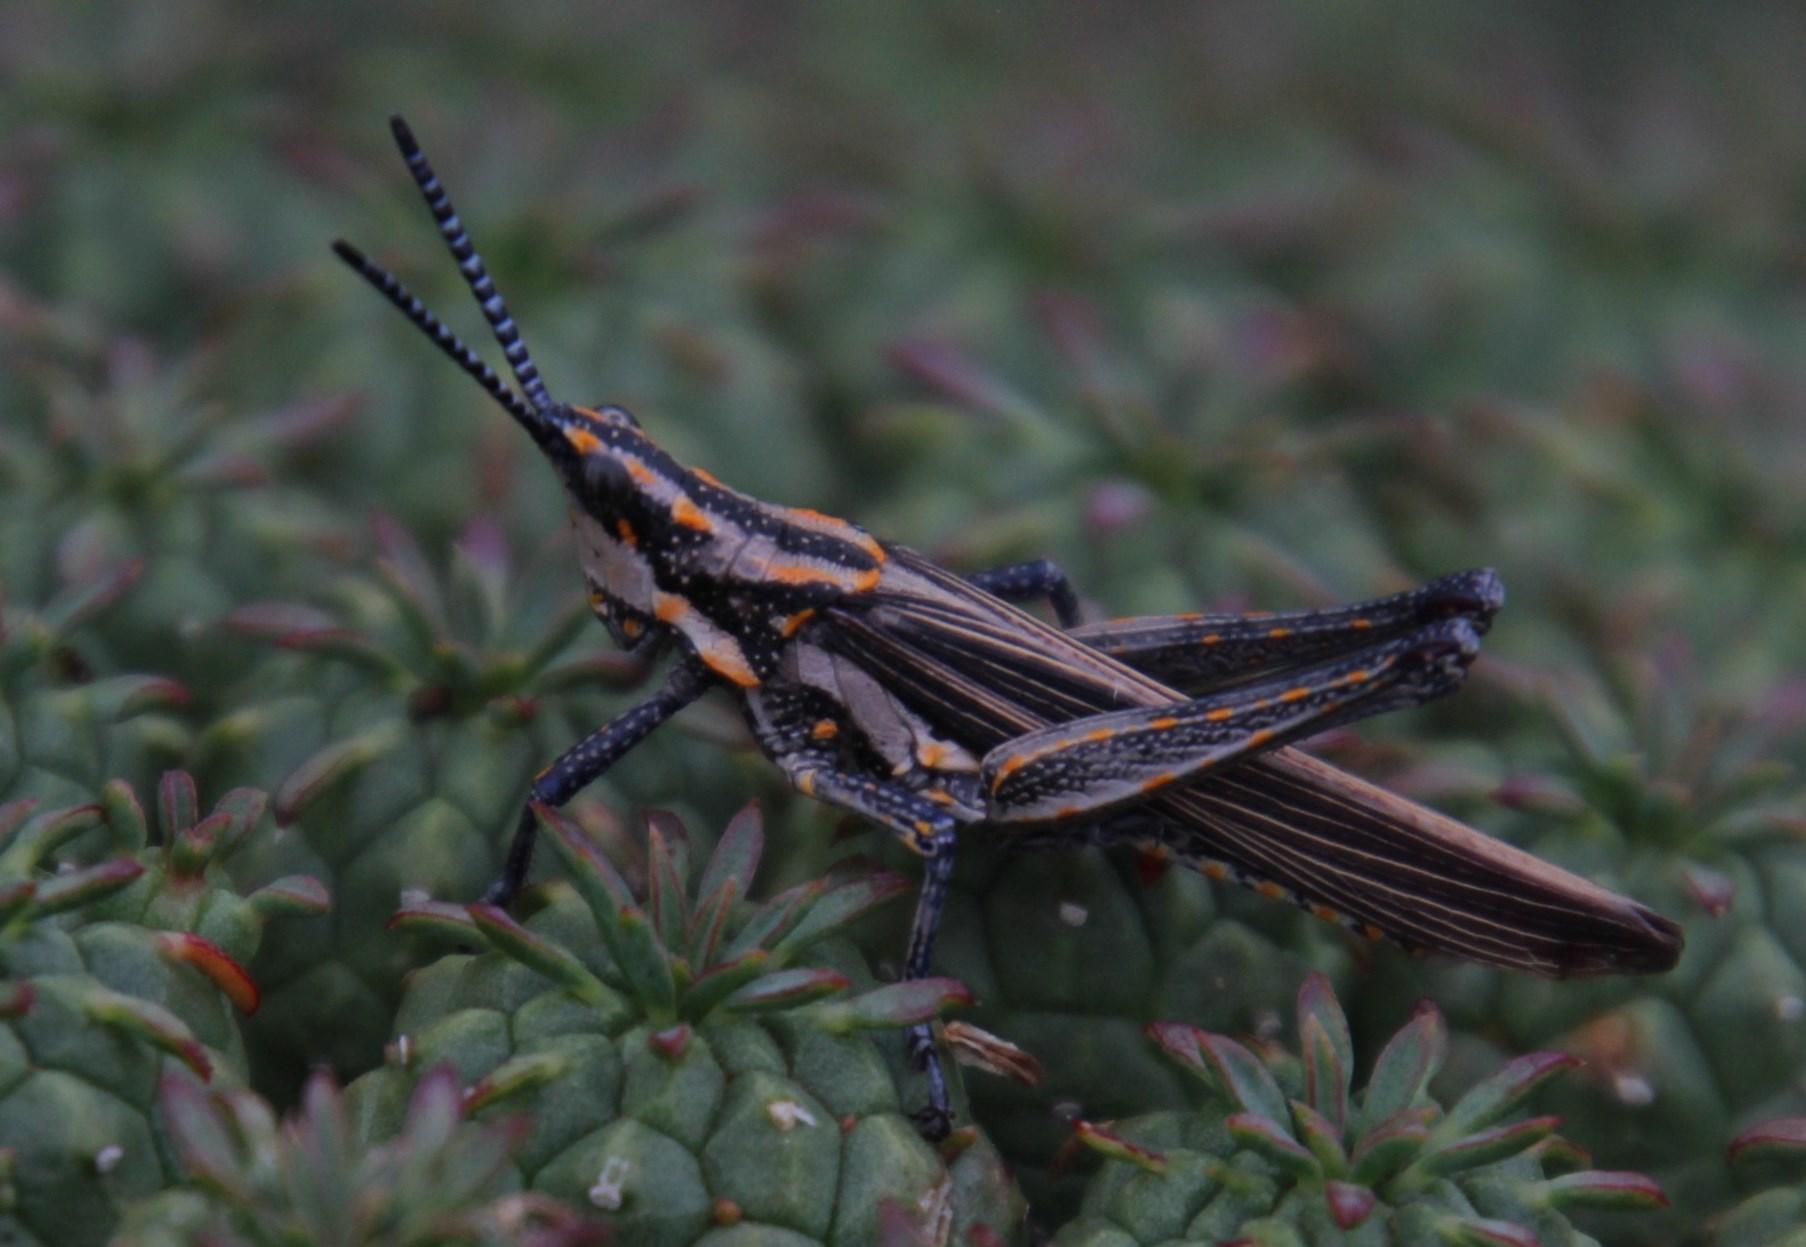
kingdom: Plantae
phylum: Tracheophyta
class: Magnoliopsida
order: Malpighiales
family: Euphorbiaceae
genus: Euphorbia
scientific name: Euphorbia clavarioides
